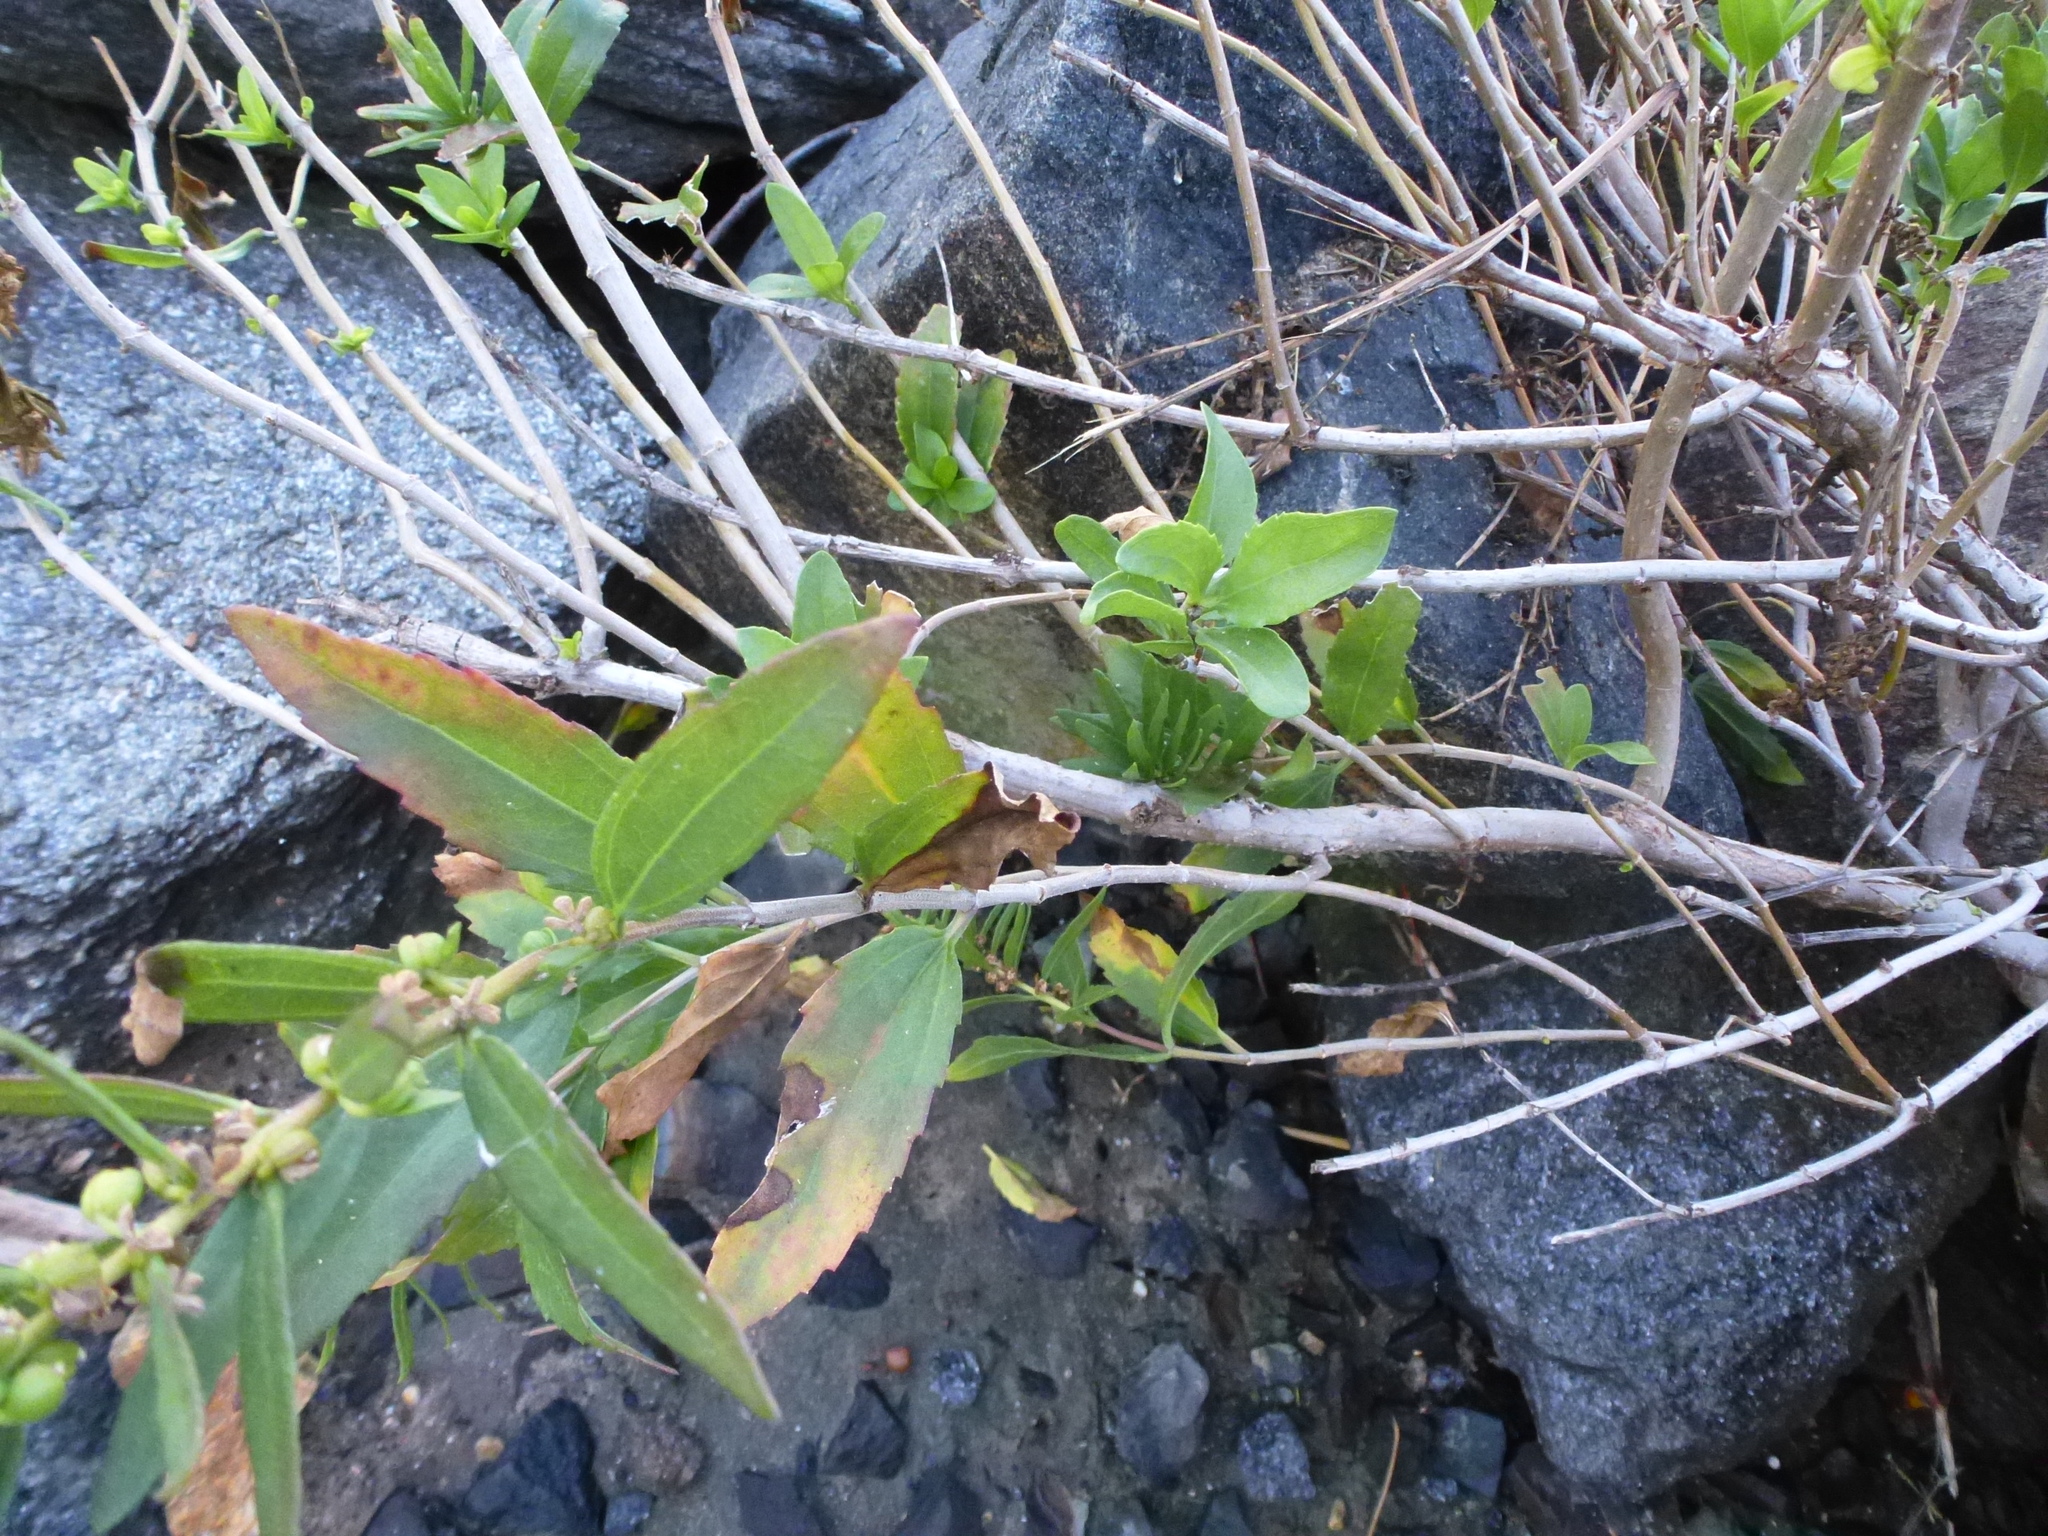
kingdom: Plantae
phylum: Tracheophyta
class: Magnoliopsida
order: Asterales
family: Asteraceae
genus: Iva
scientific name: Iva frutescens
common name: Big-leaved marsh-elder
